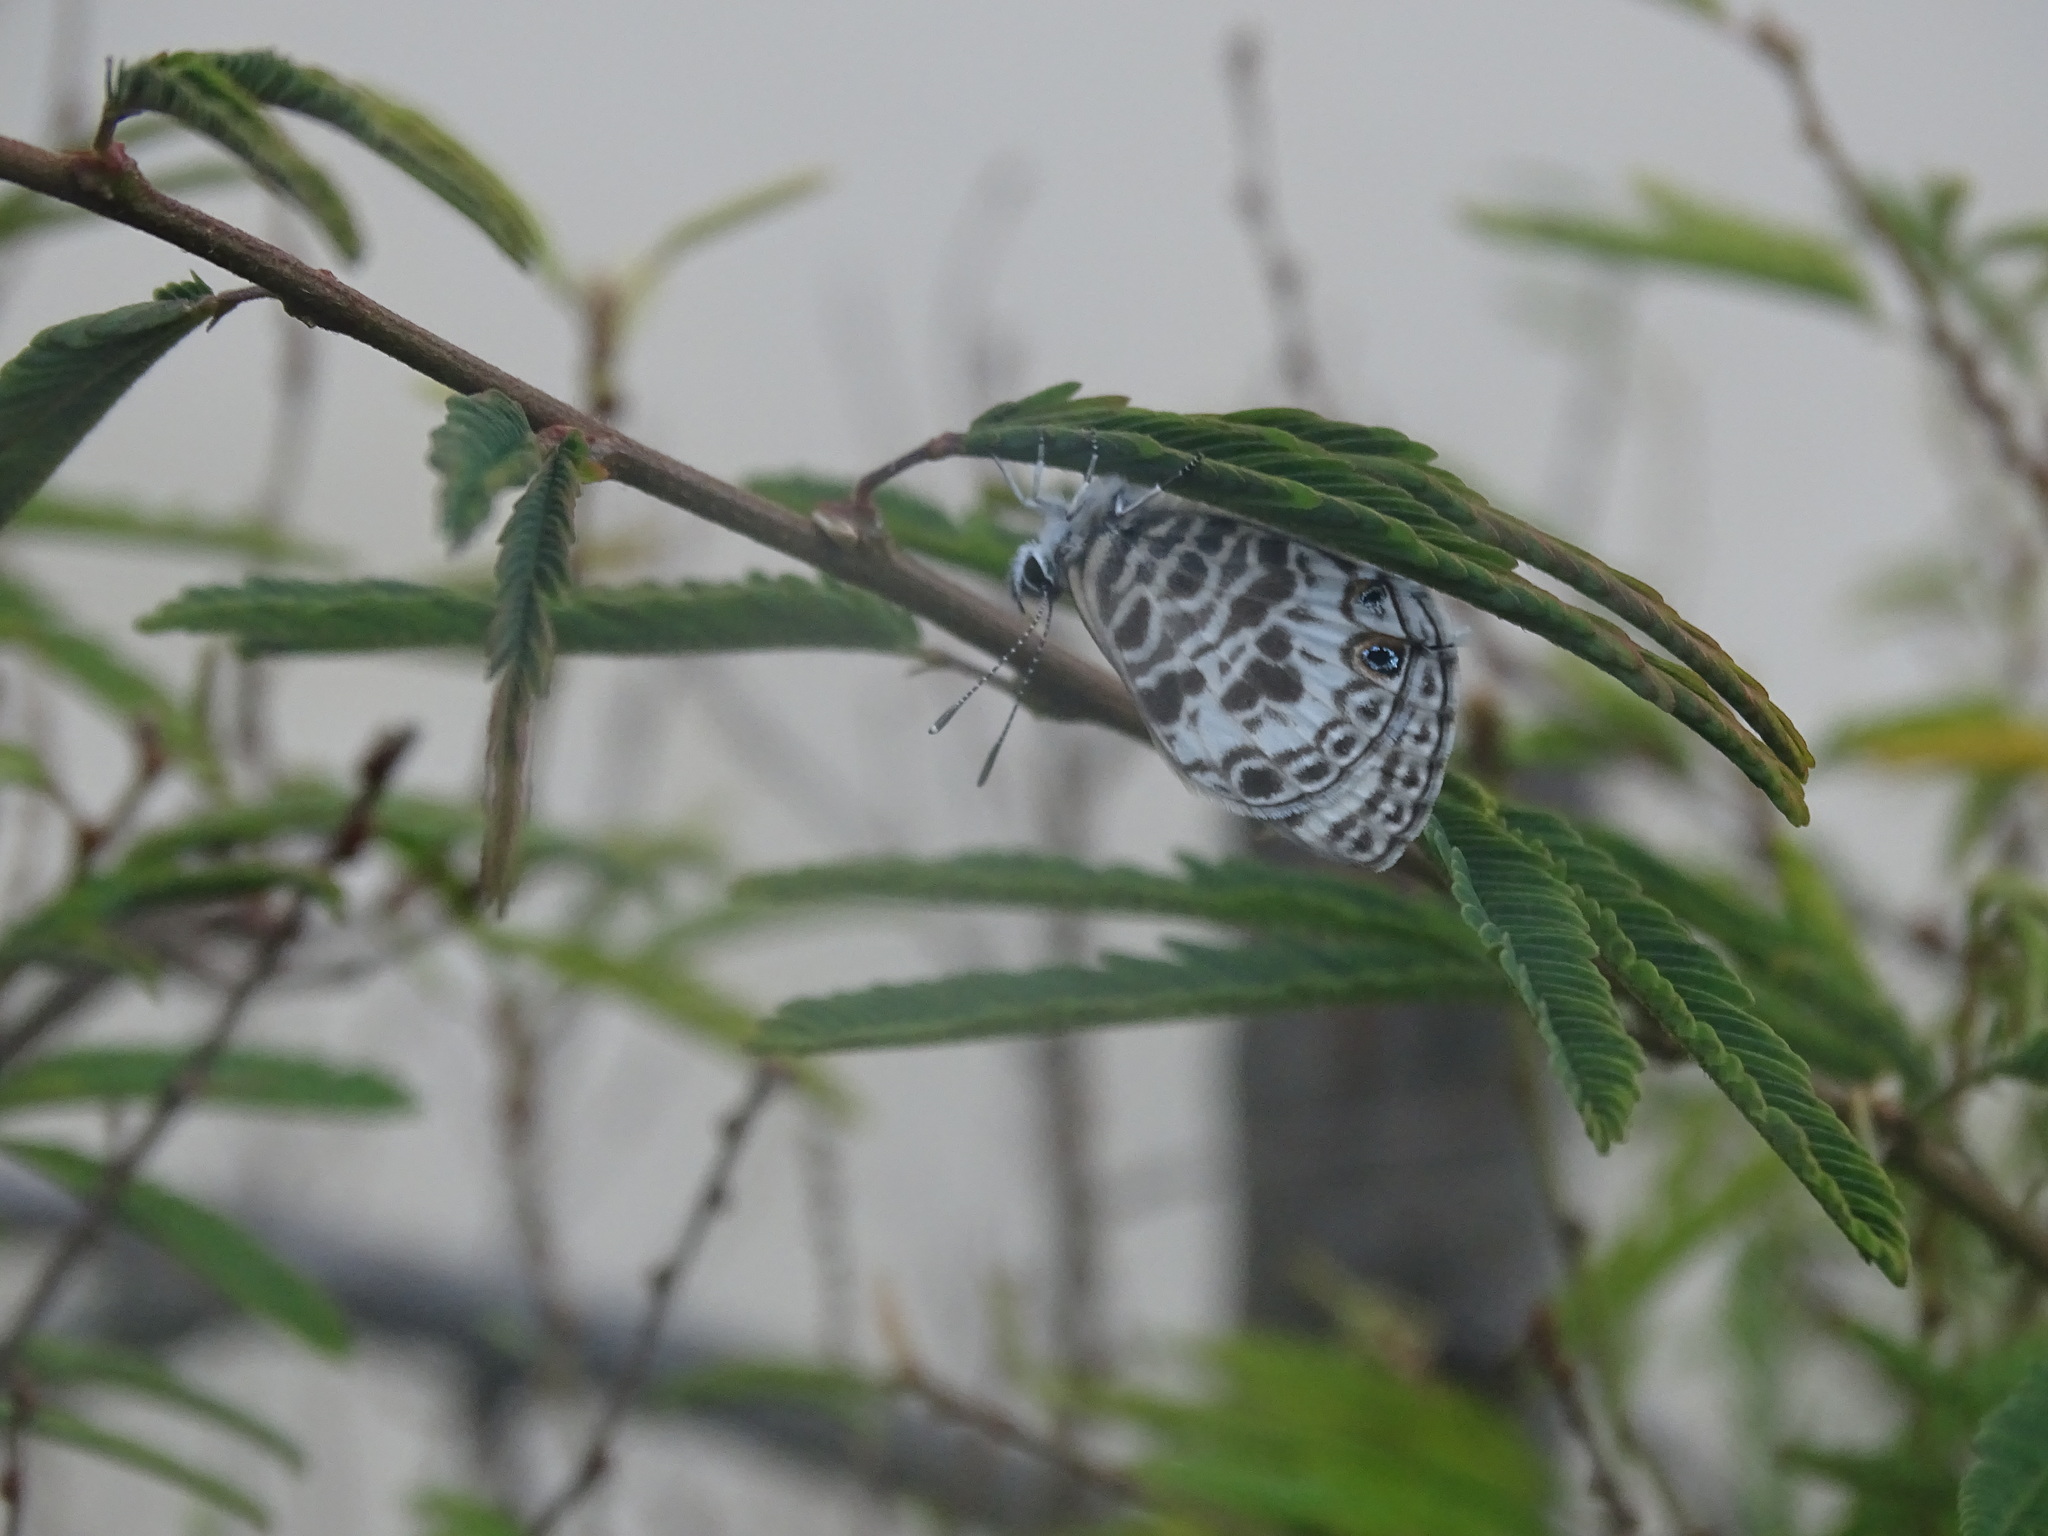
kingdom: Animalia
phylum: Arthropoda
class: Insecta
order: Lepidoptera
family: Lycaenidae
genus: Leptotes
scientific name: Leptotes plinius
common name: Zebra blue
